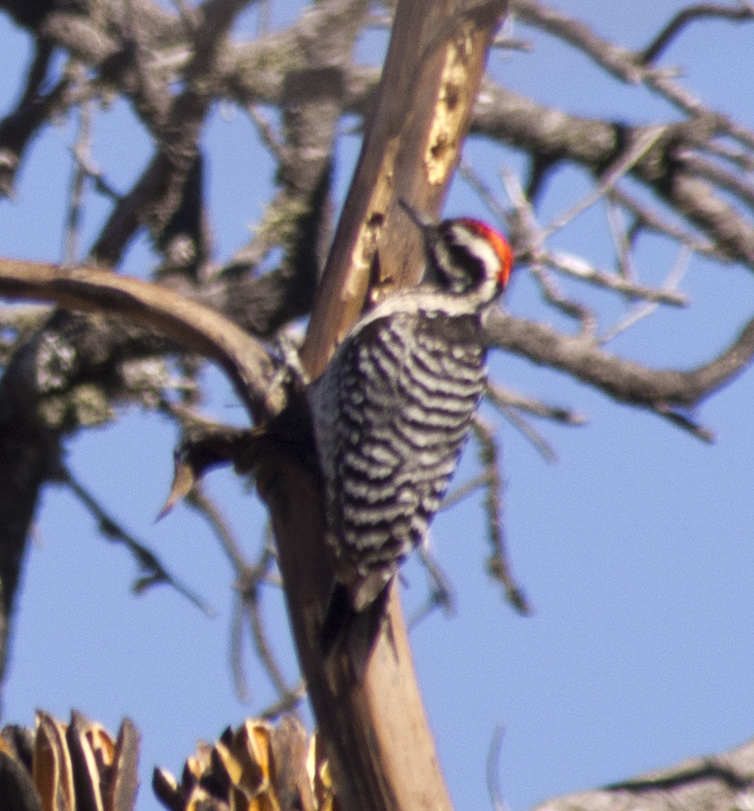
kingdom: Animalia
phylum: Chordata
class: Aves
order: Piciformes
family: Picidae
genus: Dryobates
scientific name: Dryobates scalaris
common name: Ladder-backed woodpecker
